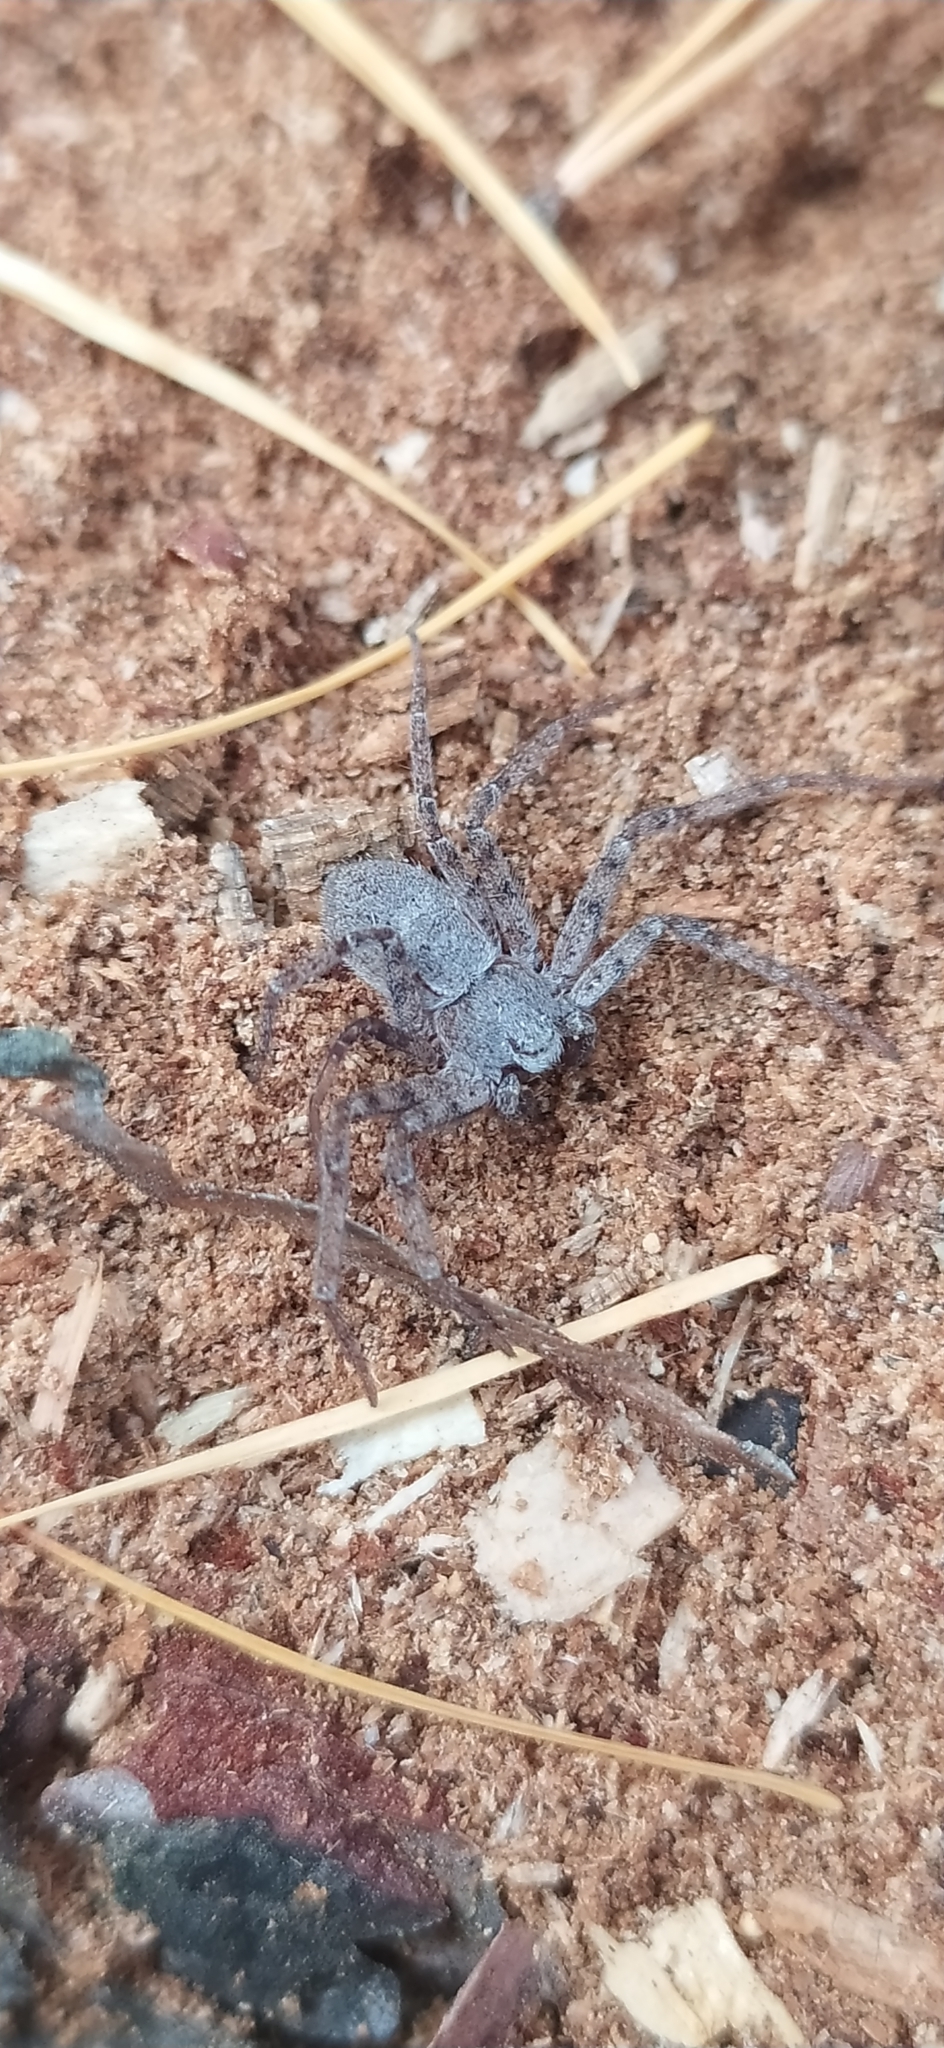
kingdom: Animalia
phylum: Arthropoda
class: Arachnida
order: Araneae
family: Philodromidae
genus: Philodromus
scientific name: Philodromus fuscomarginatus
